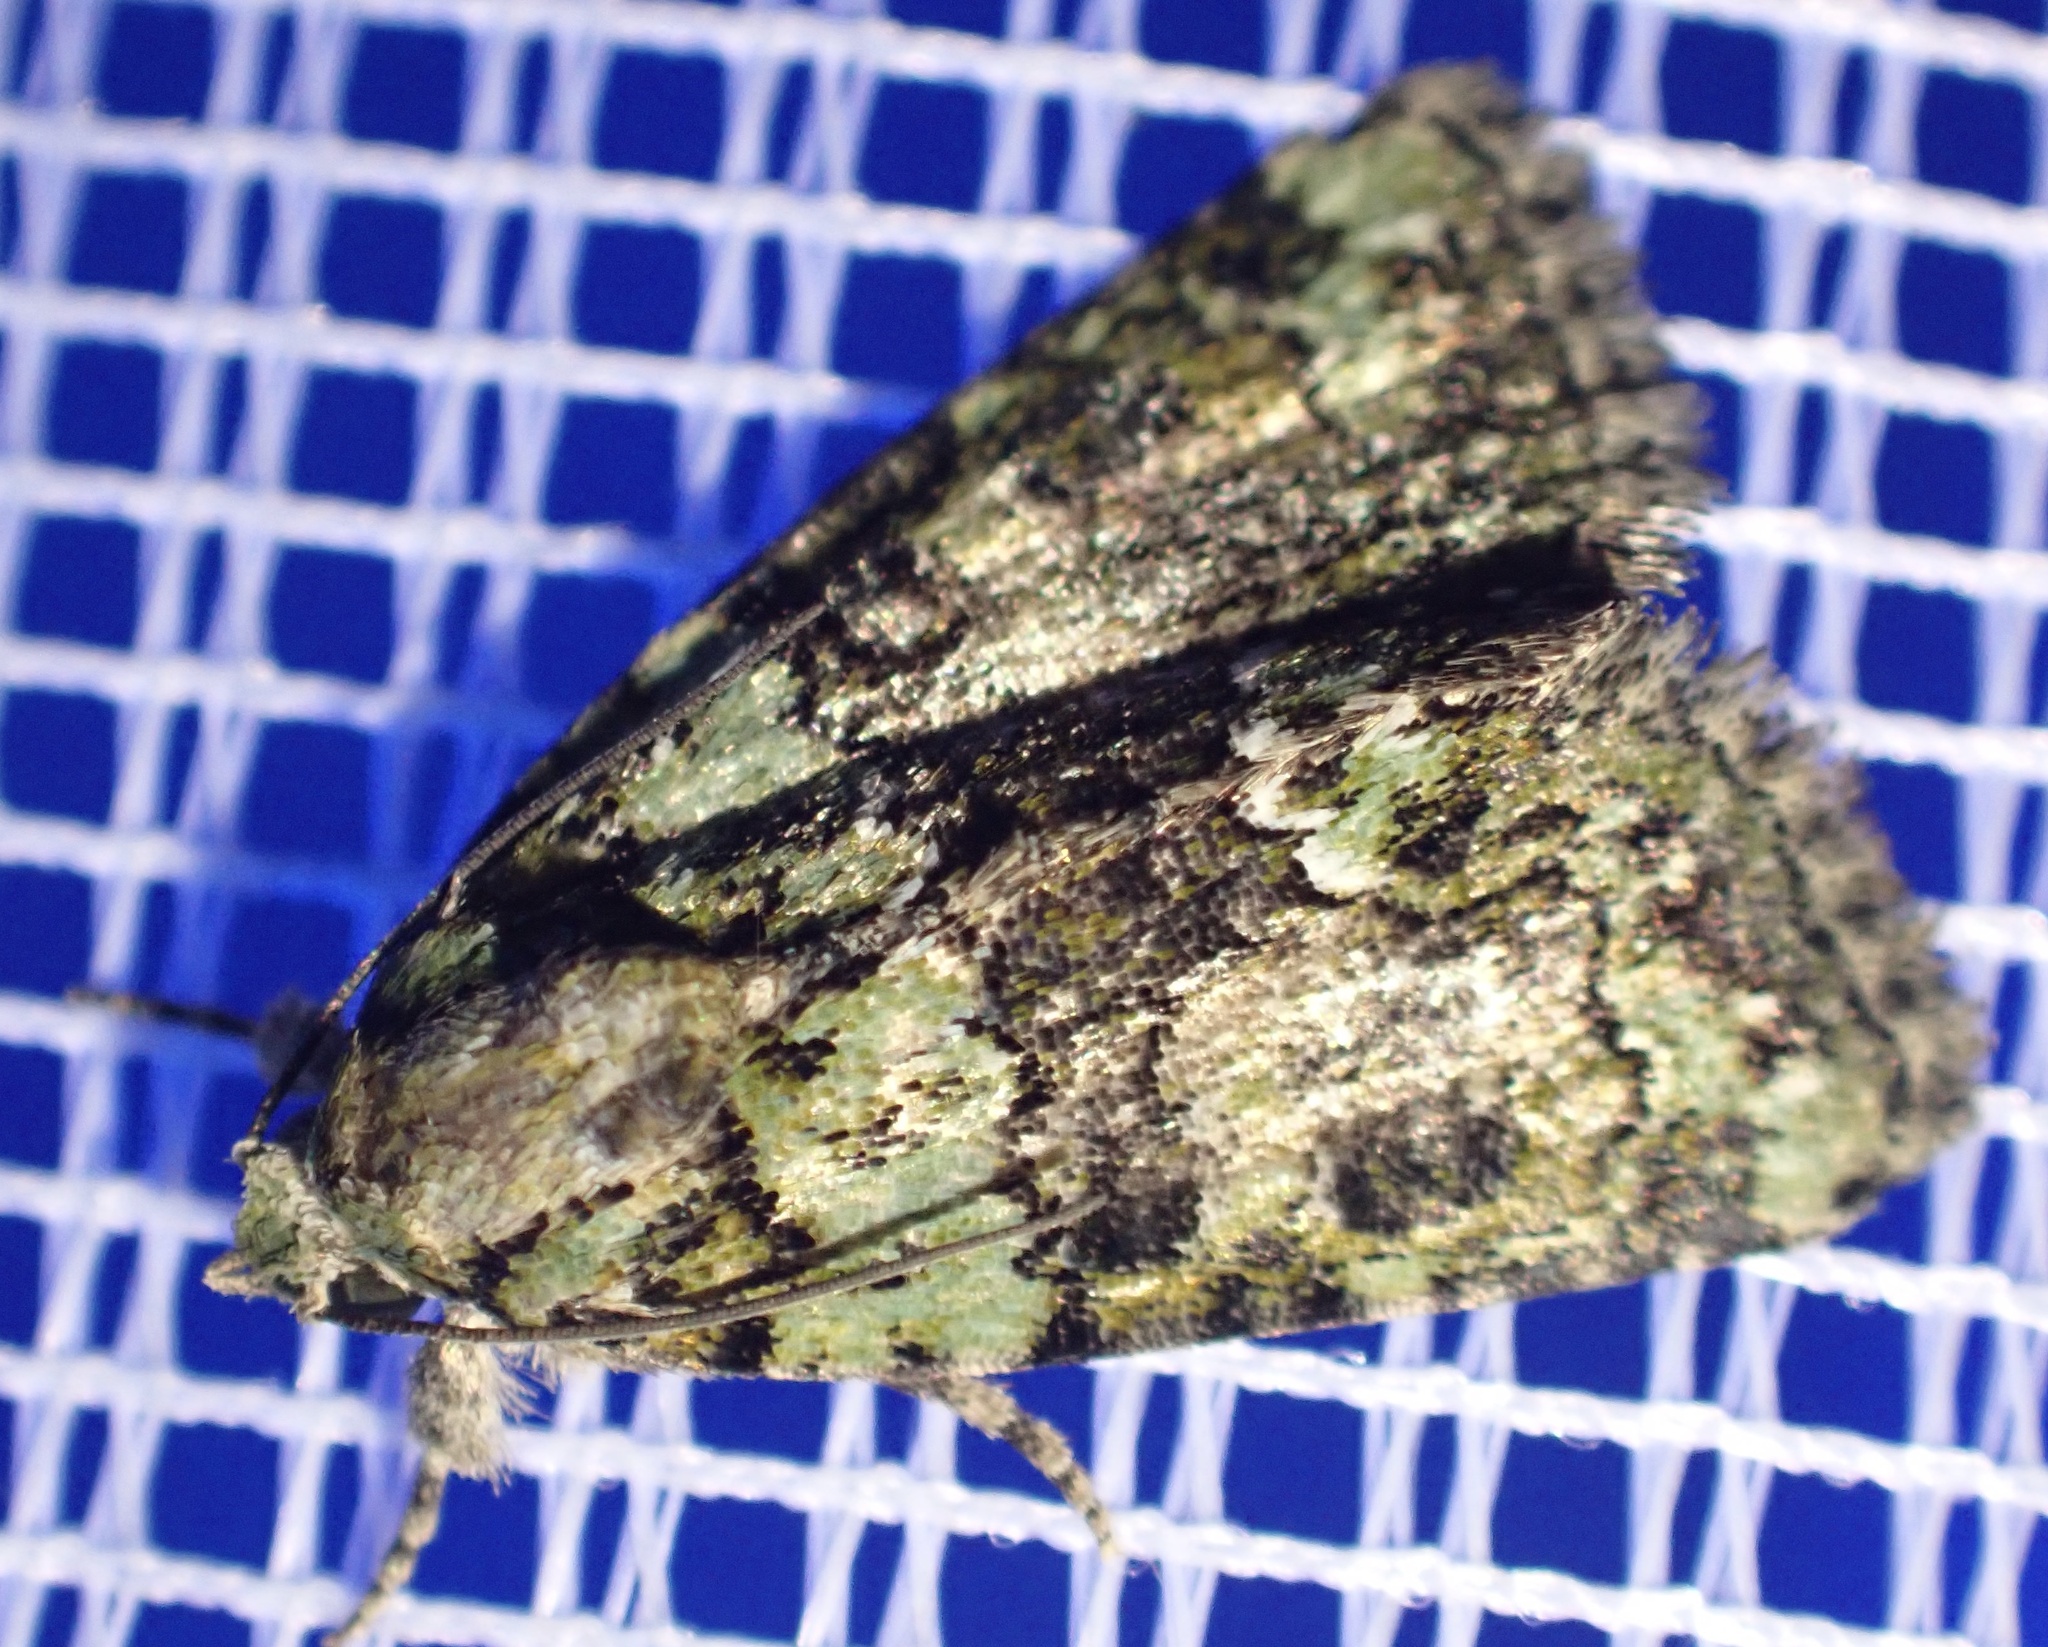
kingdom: Animalia
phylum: Arthropoda
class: Insecta
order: Lepidoptera
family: Noctuidae
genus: Cryphia
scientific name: Cryphia algae
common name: Tree-lichen beauty
